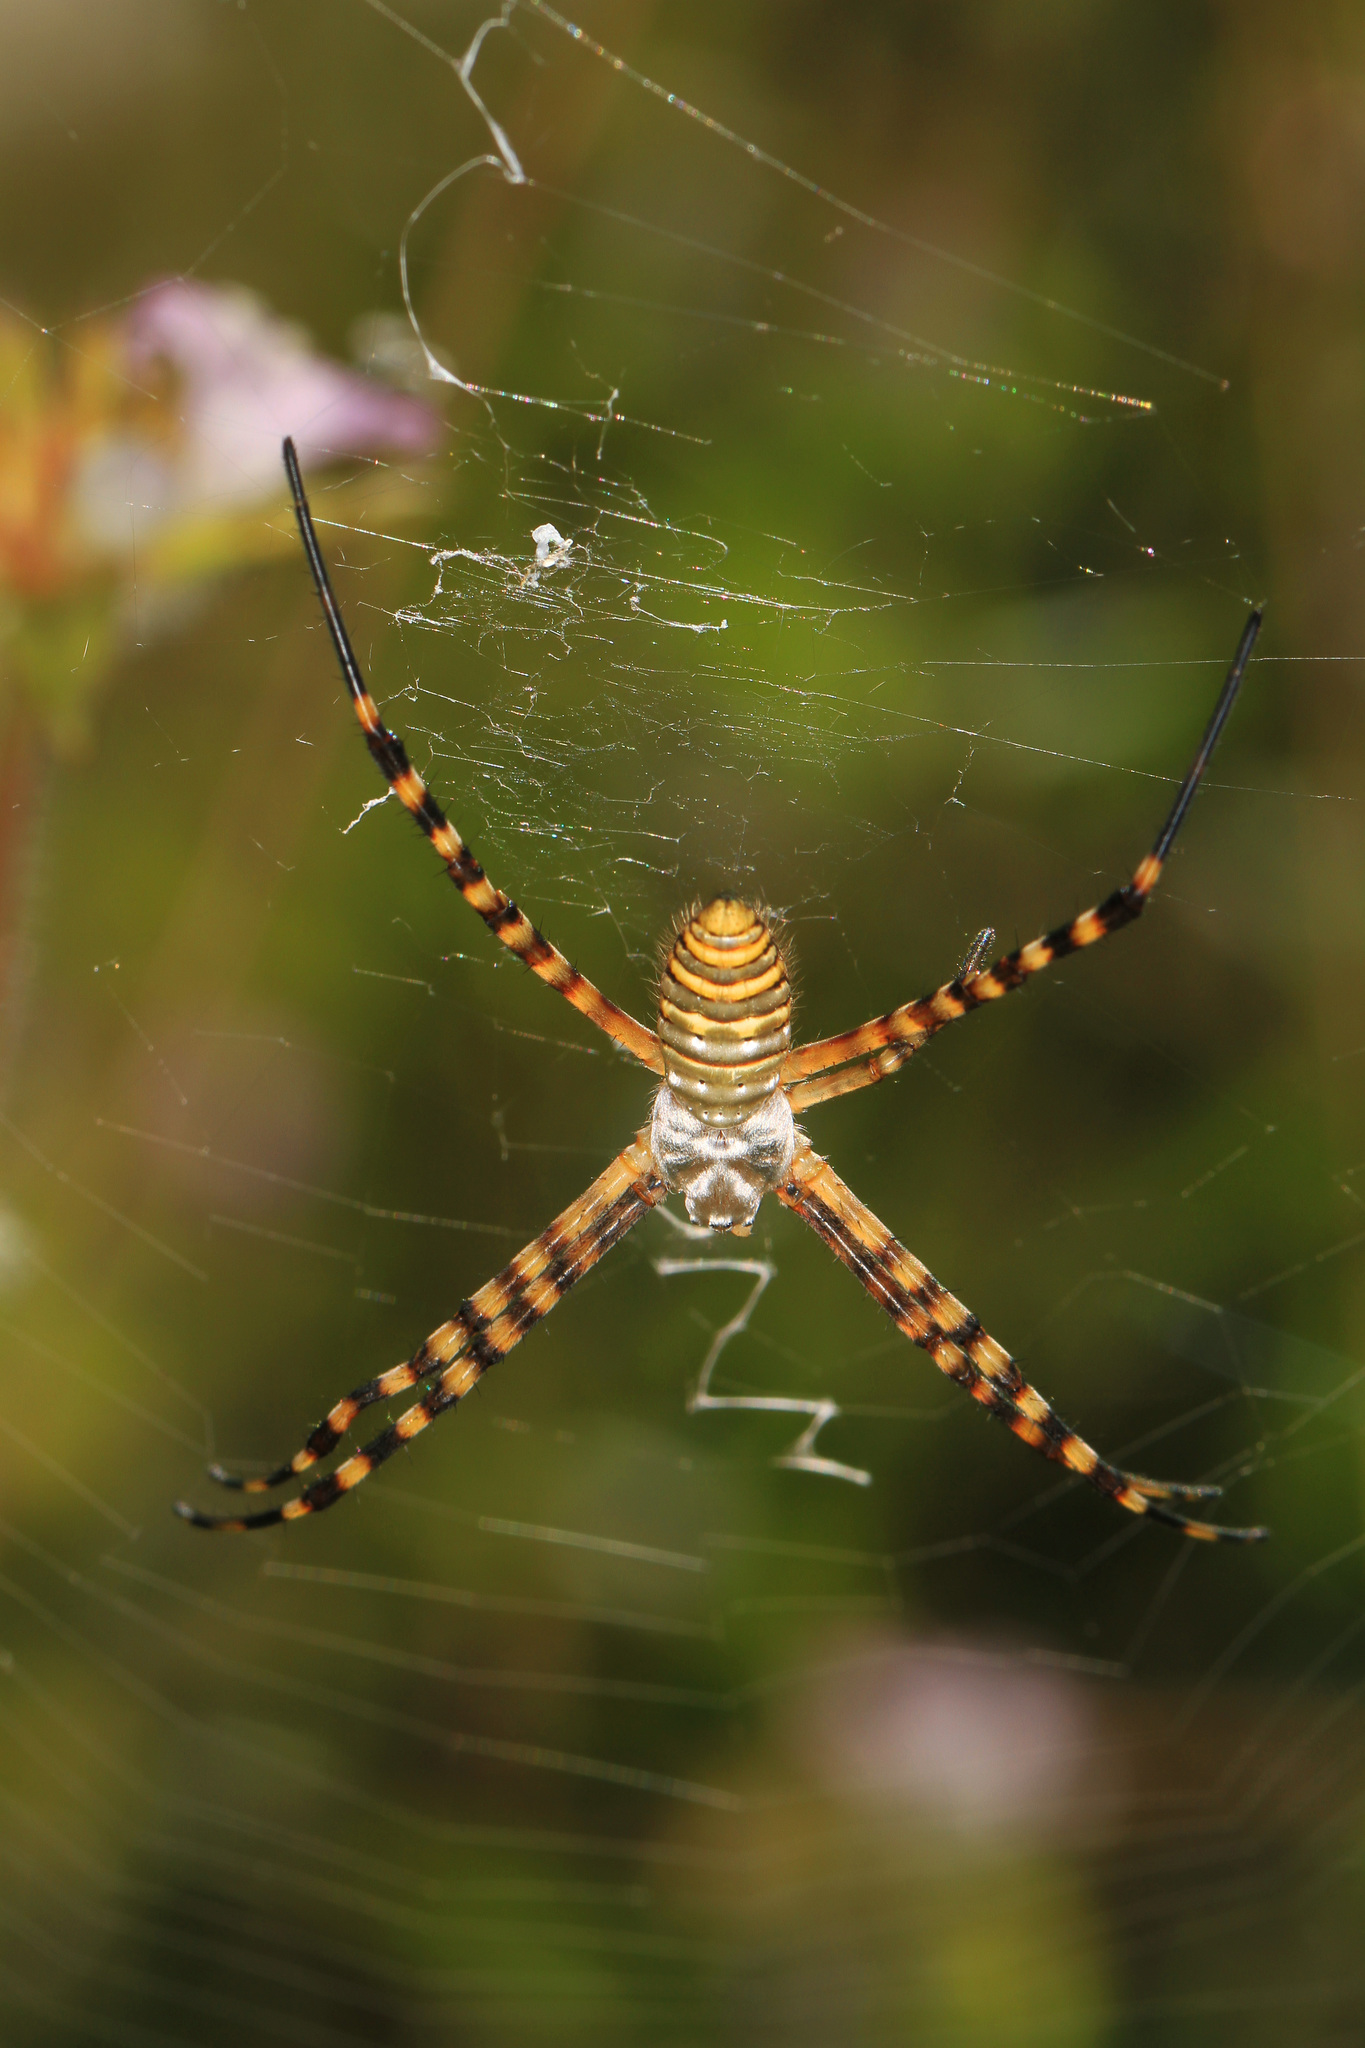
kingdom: Animalia
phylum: Arthropoda
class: Arachnida
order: Araneae
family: Araneidae
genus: Argiope
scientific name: Argiope trifasciata
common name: Banded garden spider
